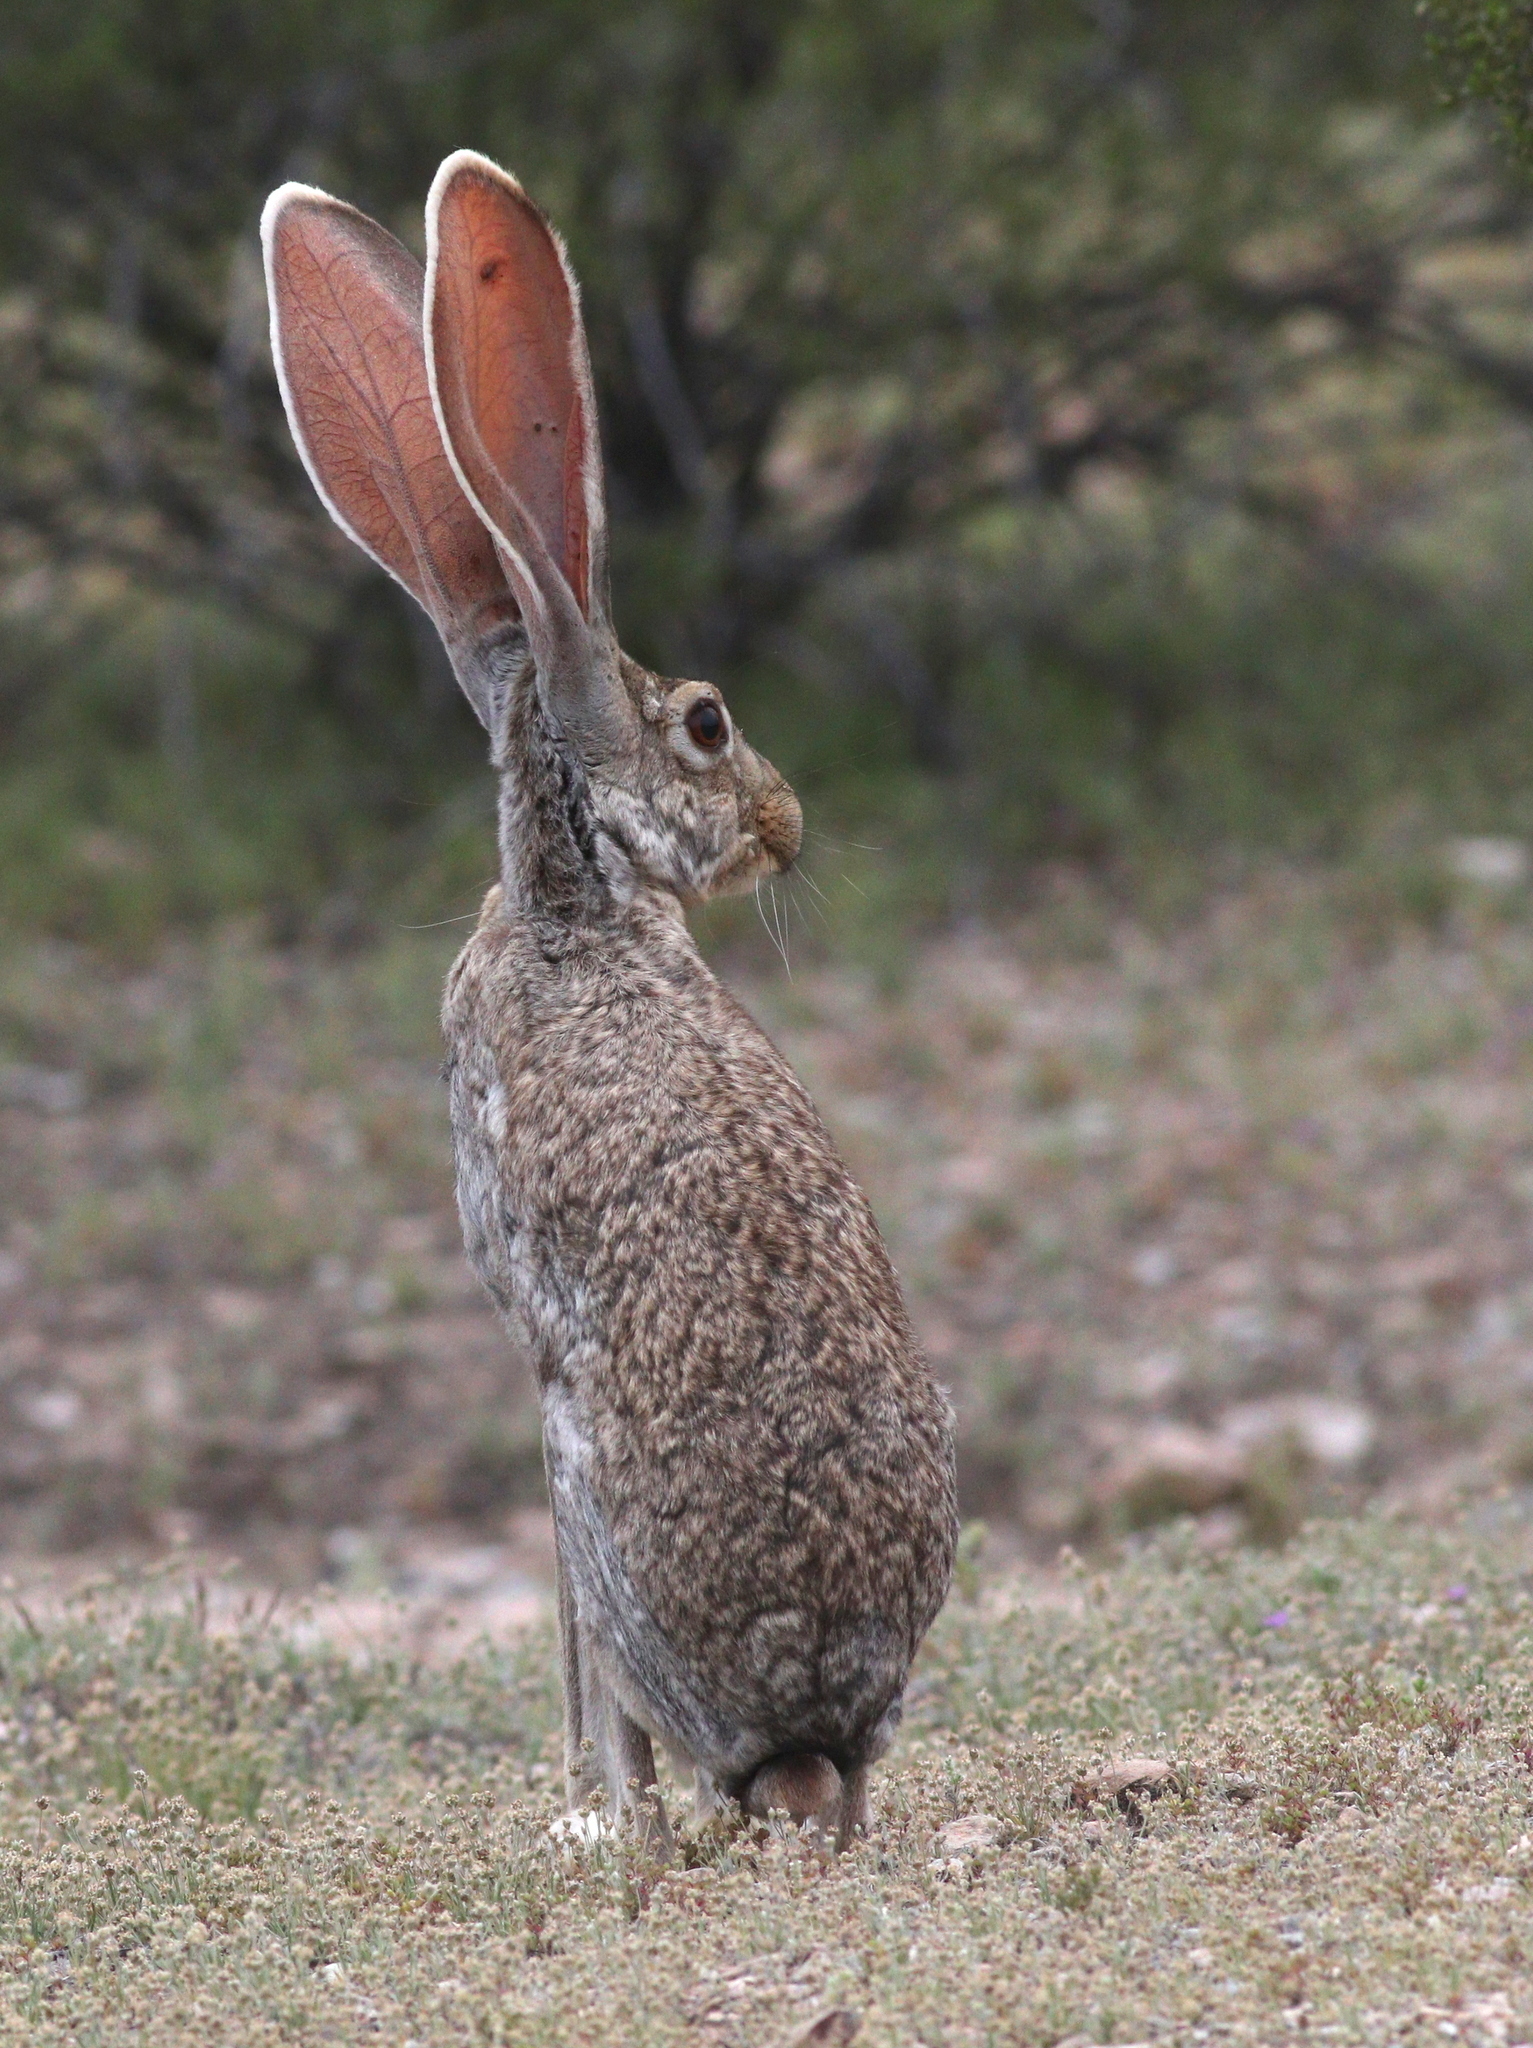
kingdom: Animalia
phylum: Chordata
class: Mammalia
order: Lagomorpha
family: Leporidae
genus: Lepus
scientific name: Lepus alleni
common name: Antelope jackrabbit
